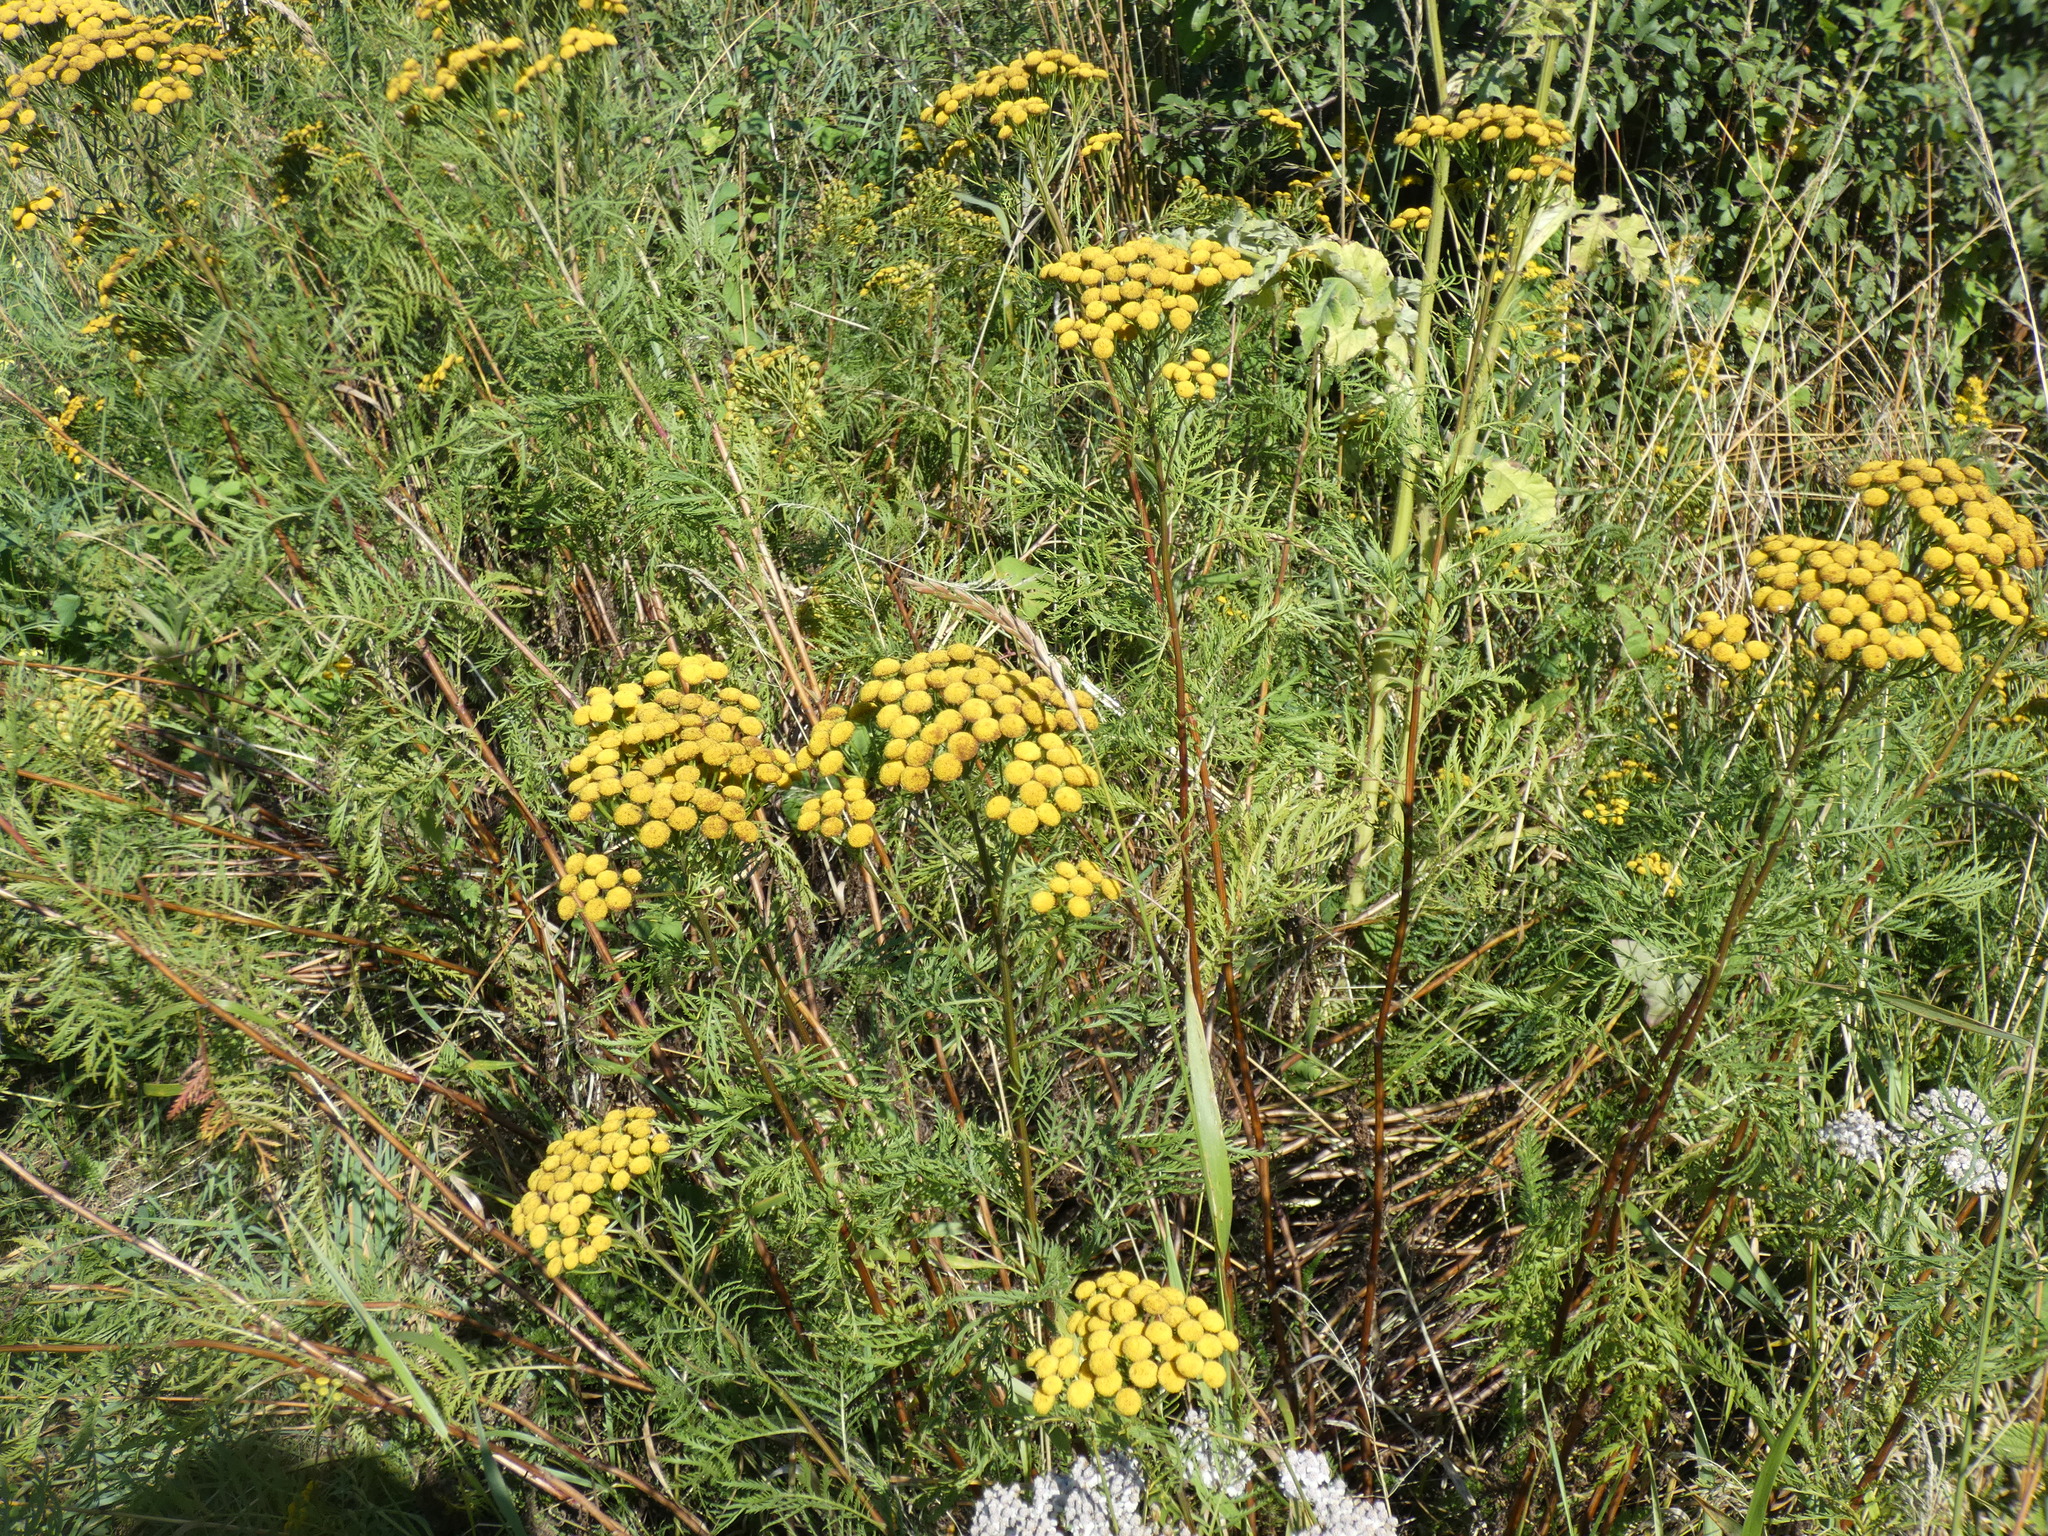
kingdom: Plantae
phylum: Tracheophyta
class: Magnoliopsida
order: Asterales
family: Asteraceae
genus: Tanacetum
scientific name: Tanacetum vulgare
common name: Common tansy
